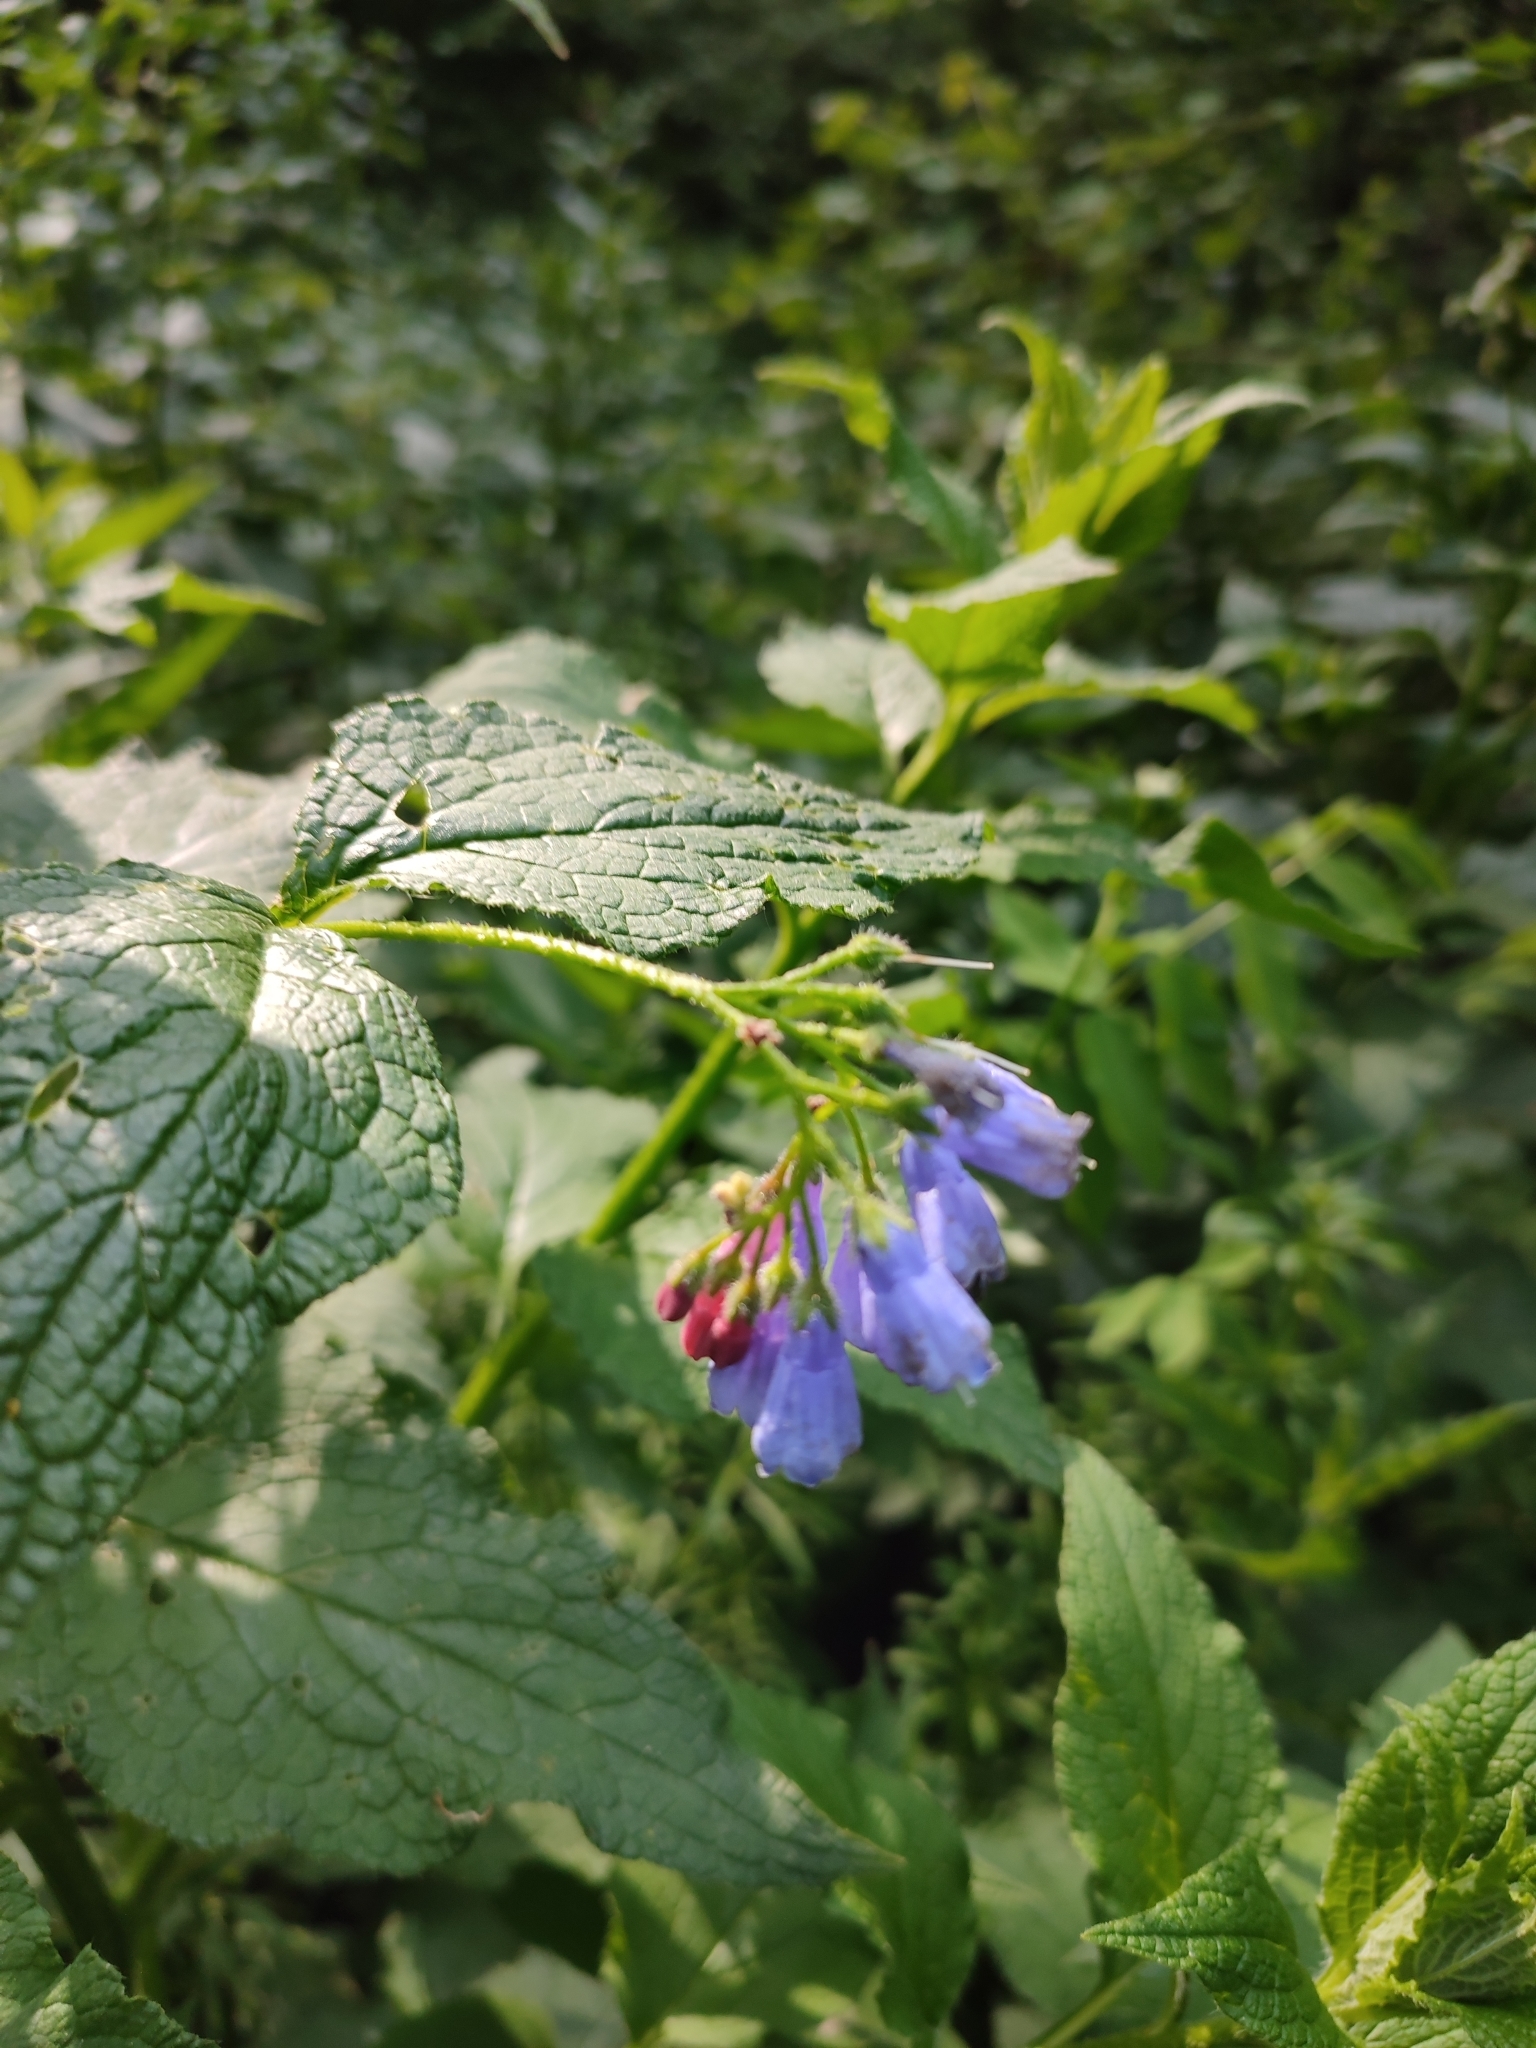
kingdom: Plantae
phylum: Tracheophyta
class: Magnoliopsida
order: Boraginales
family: Boraginaceae
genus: Symphytum
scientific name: Symphytum asperum
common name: Prickly comfrey
